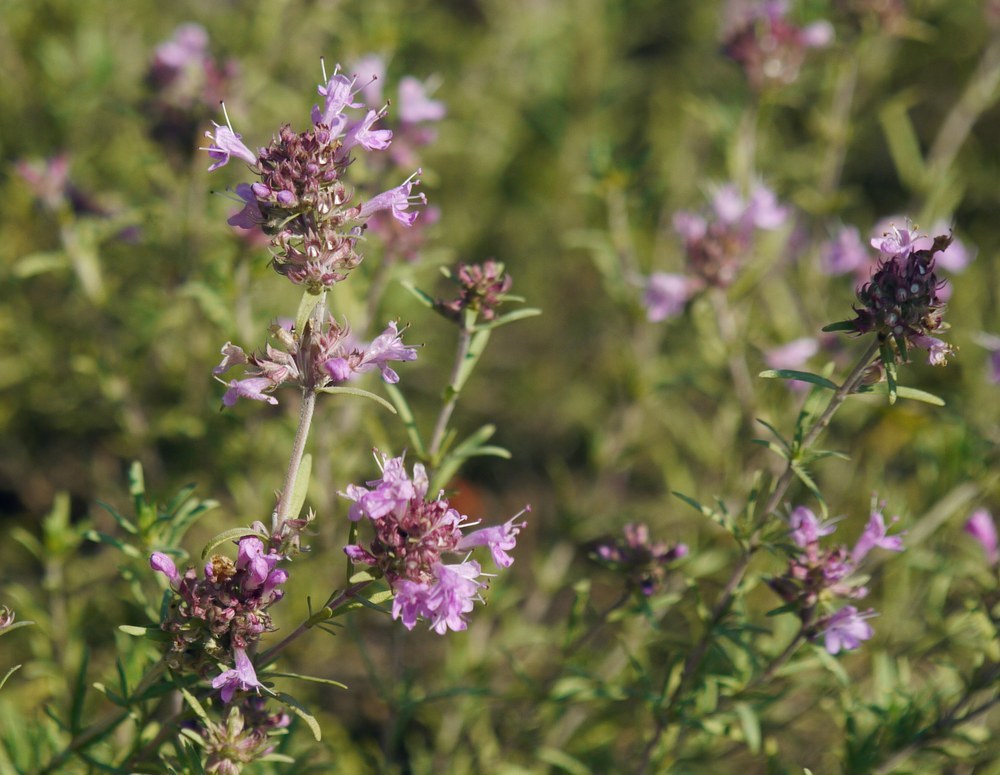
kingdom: Plantae
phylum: Tracheophyta
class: Magnoliopsida
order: Lamiales
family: Lamiaceae
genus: Thymus
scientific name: Thymus pallasianus
